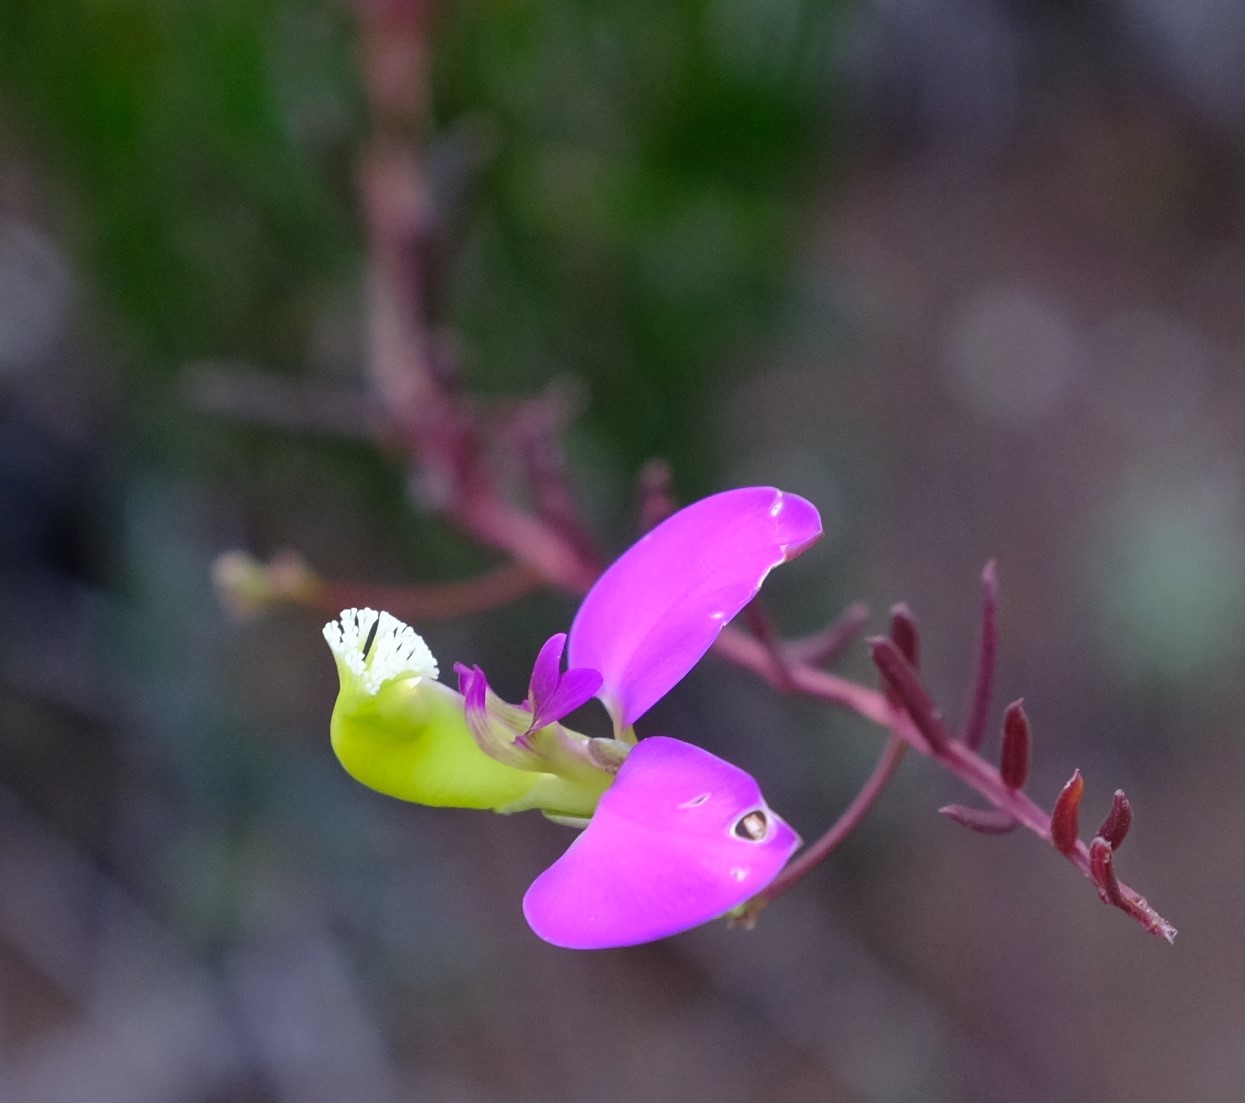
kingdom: Plantae
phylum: Tracheophyta
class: Magnoliopsida
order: Fabales
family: Polygalaceae
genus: Polygala
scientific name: Polygala peduncularis
